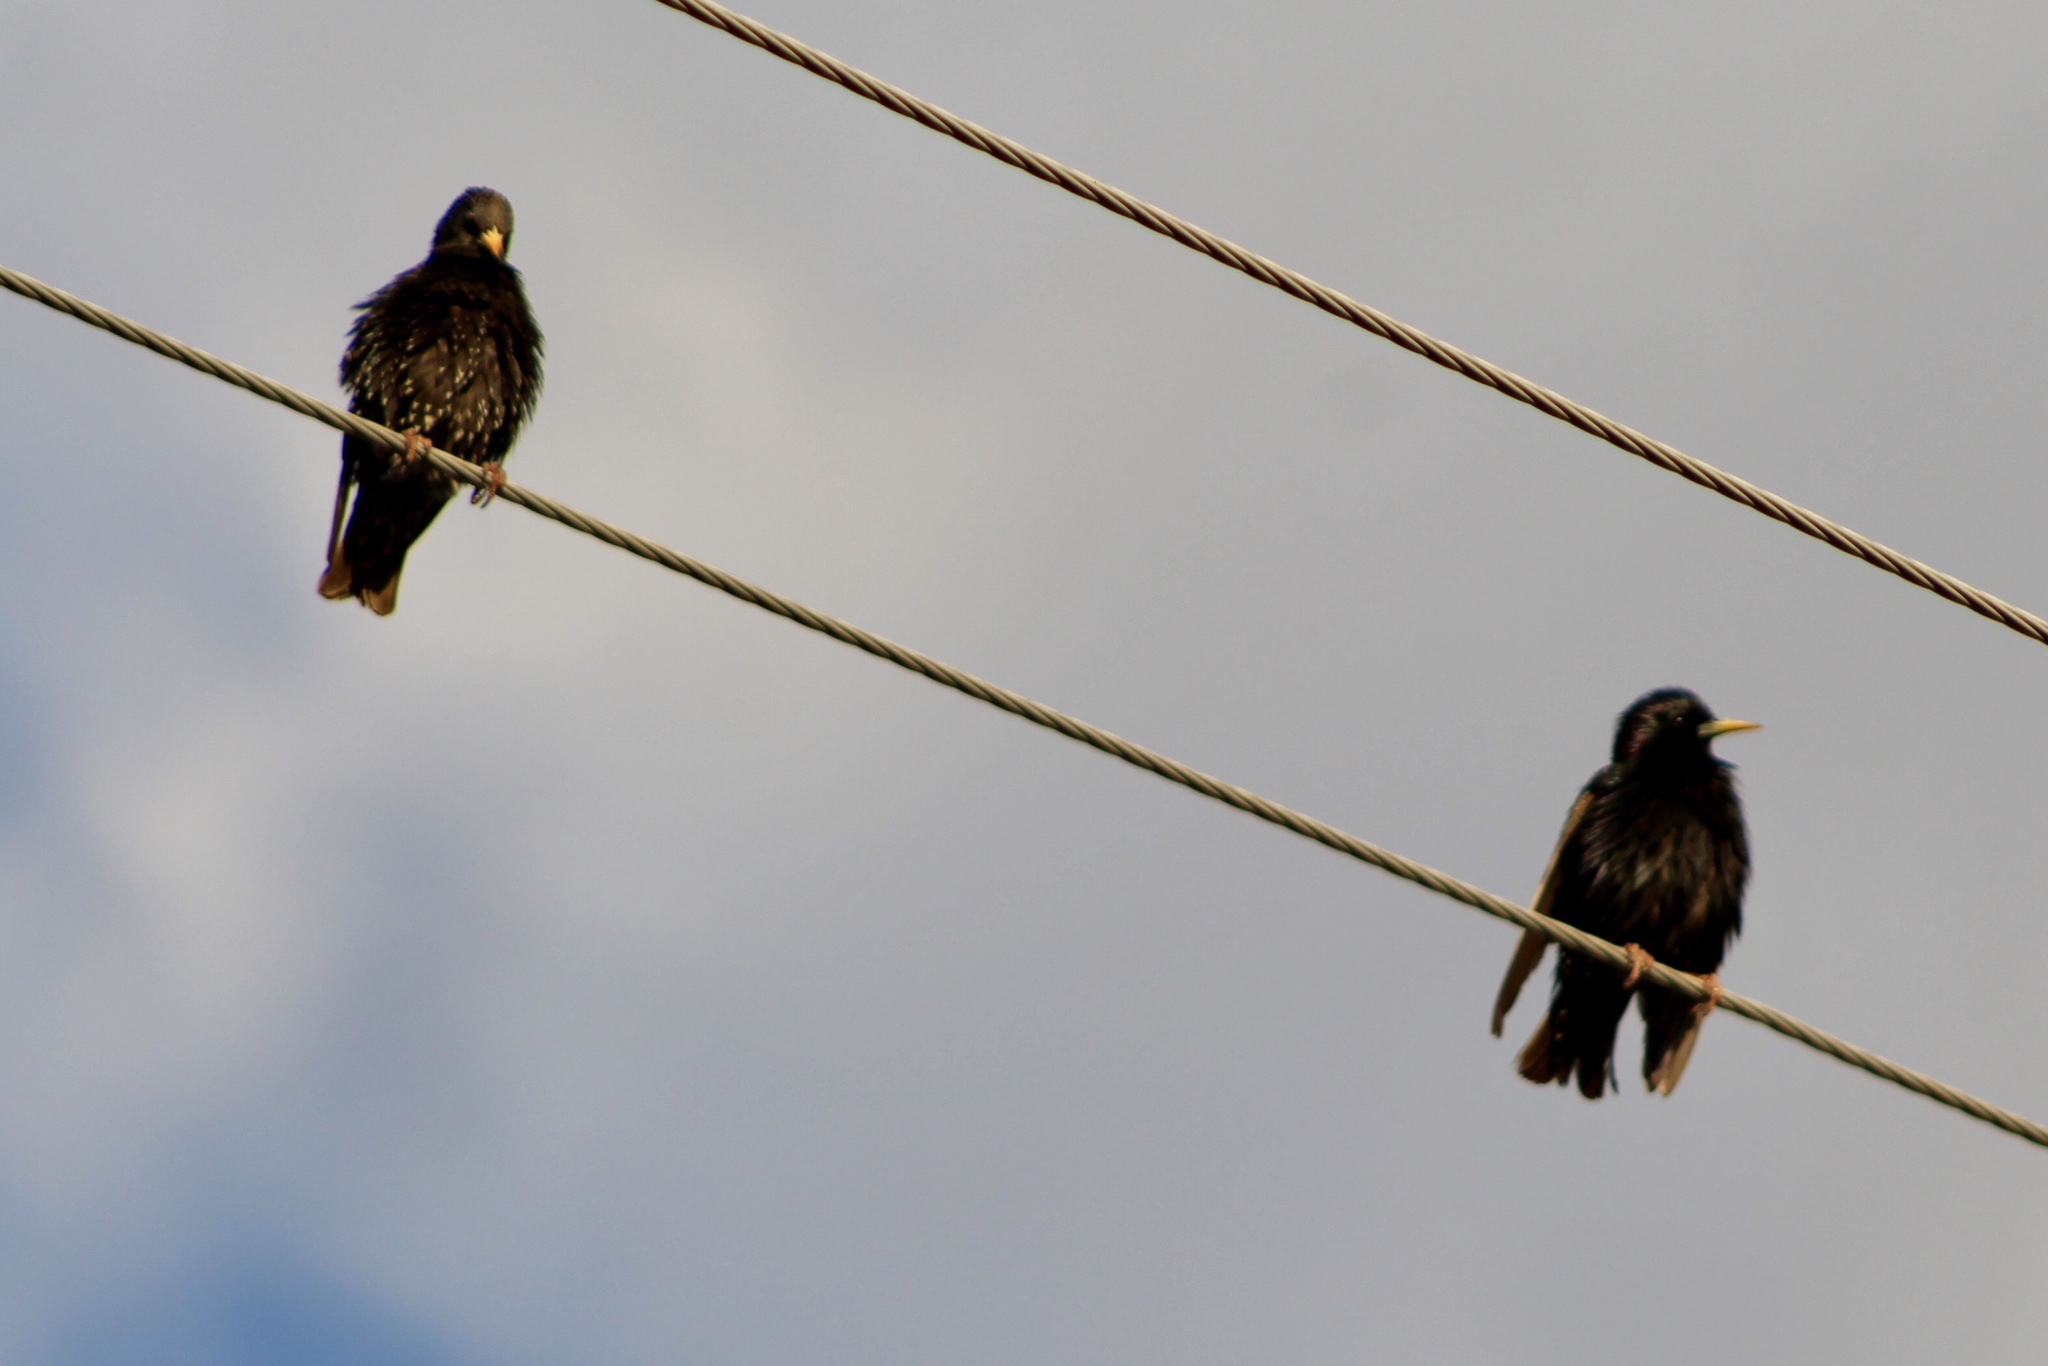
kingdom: Animalia
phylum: Chordata
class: Aves
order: Passeriformes
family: Sturnidae
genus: Sturnus
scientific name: Sturnus vulgaris
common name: Common starling
